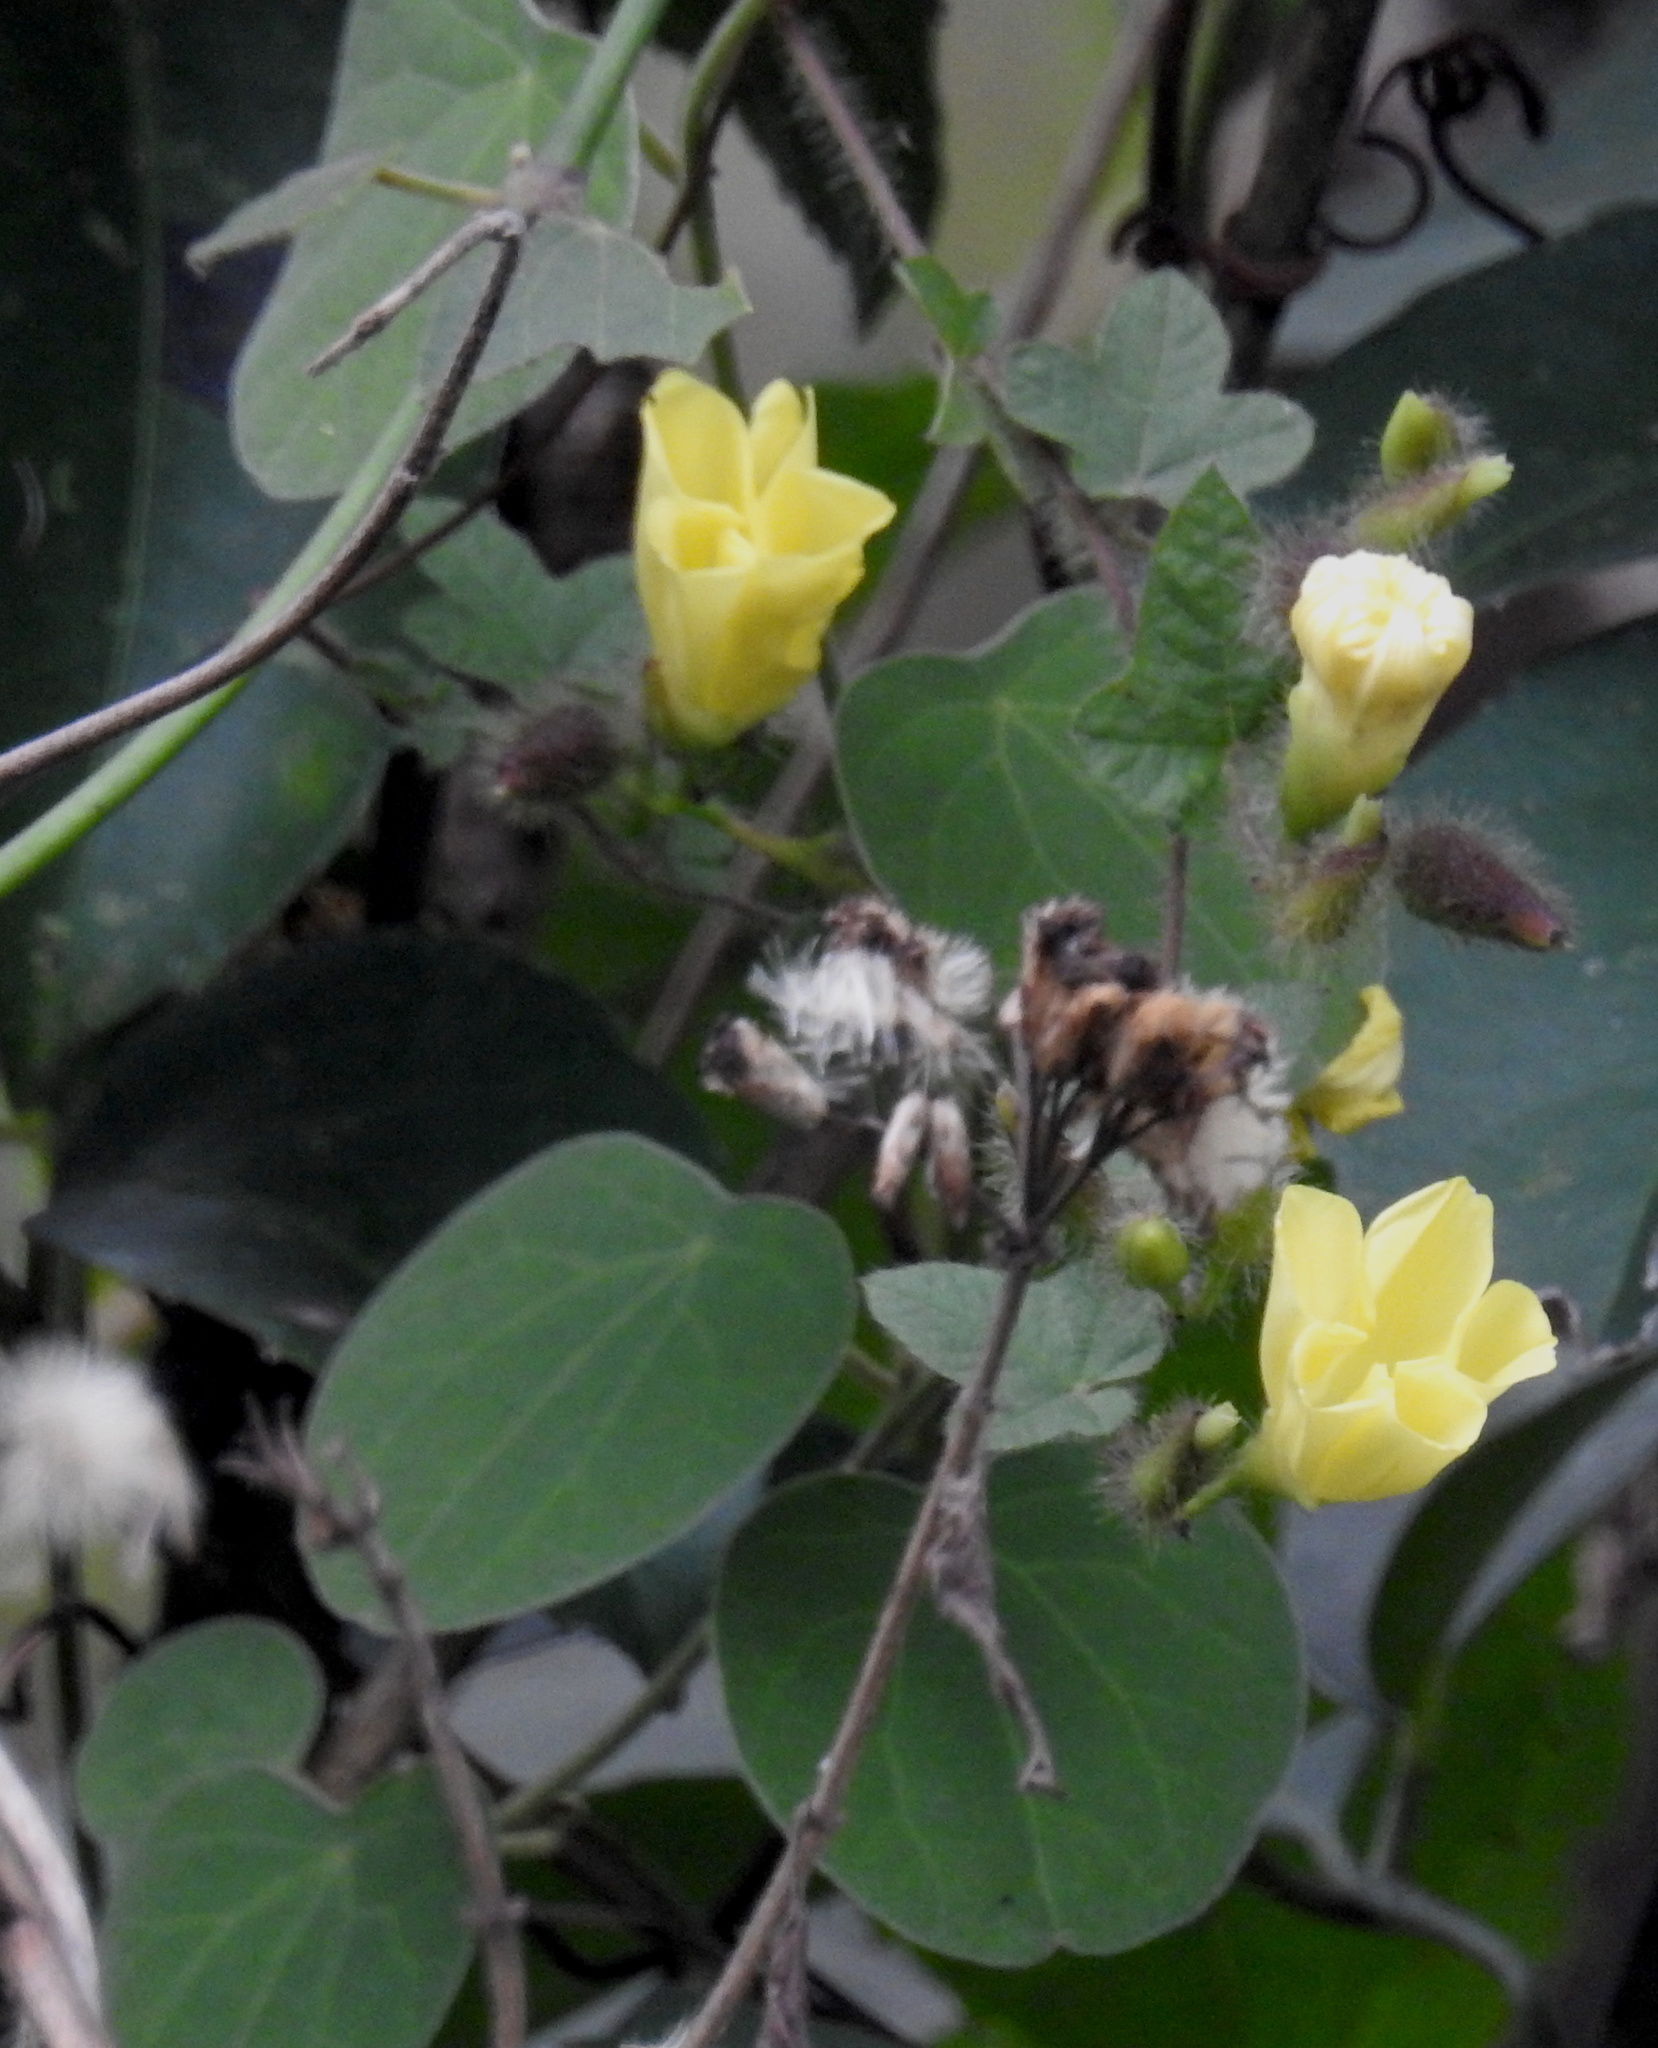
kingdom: Plantae
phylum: Tracheophyta
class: Magnoliopsida
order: Solanales
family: Convolvulaceae
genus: Distimake
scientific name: Distimake
